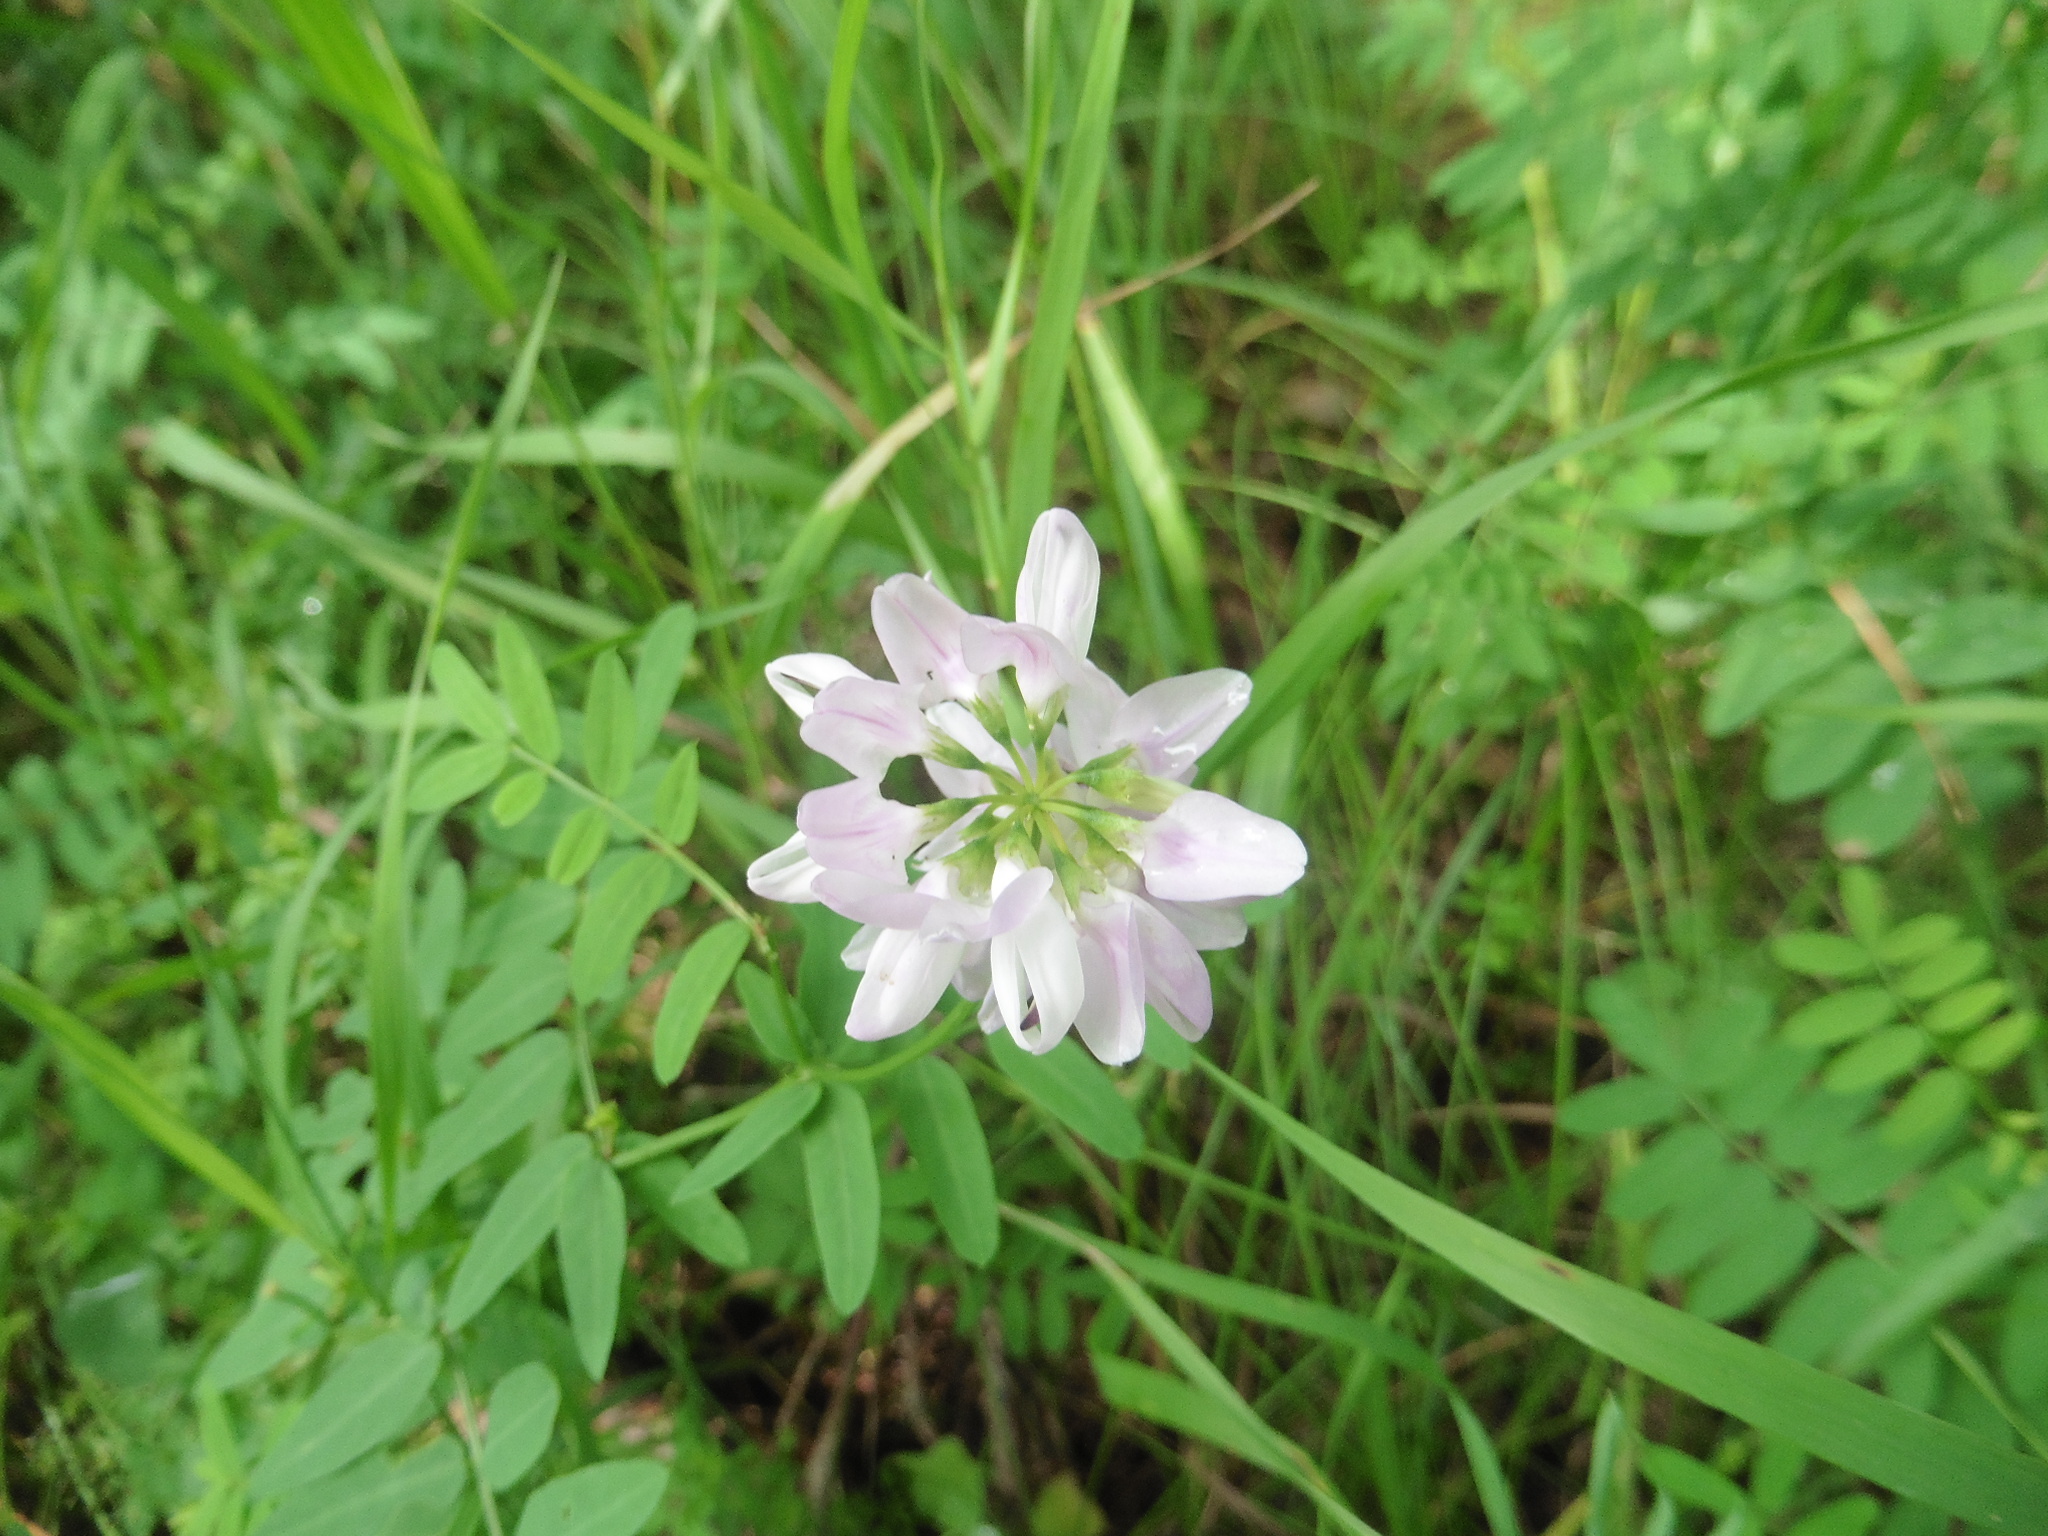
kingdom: Plantae
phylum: Tracheophyta
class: Magnoliopsida
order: Fabales
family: Fabaceae
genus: Coronilla
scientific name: Coronilla varia
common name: Crownvetch
